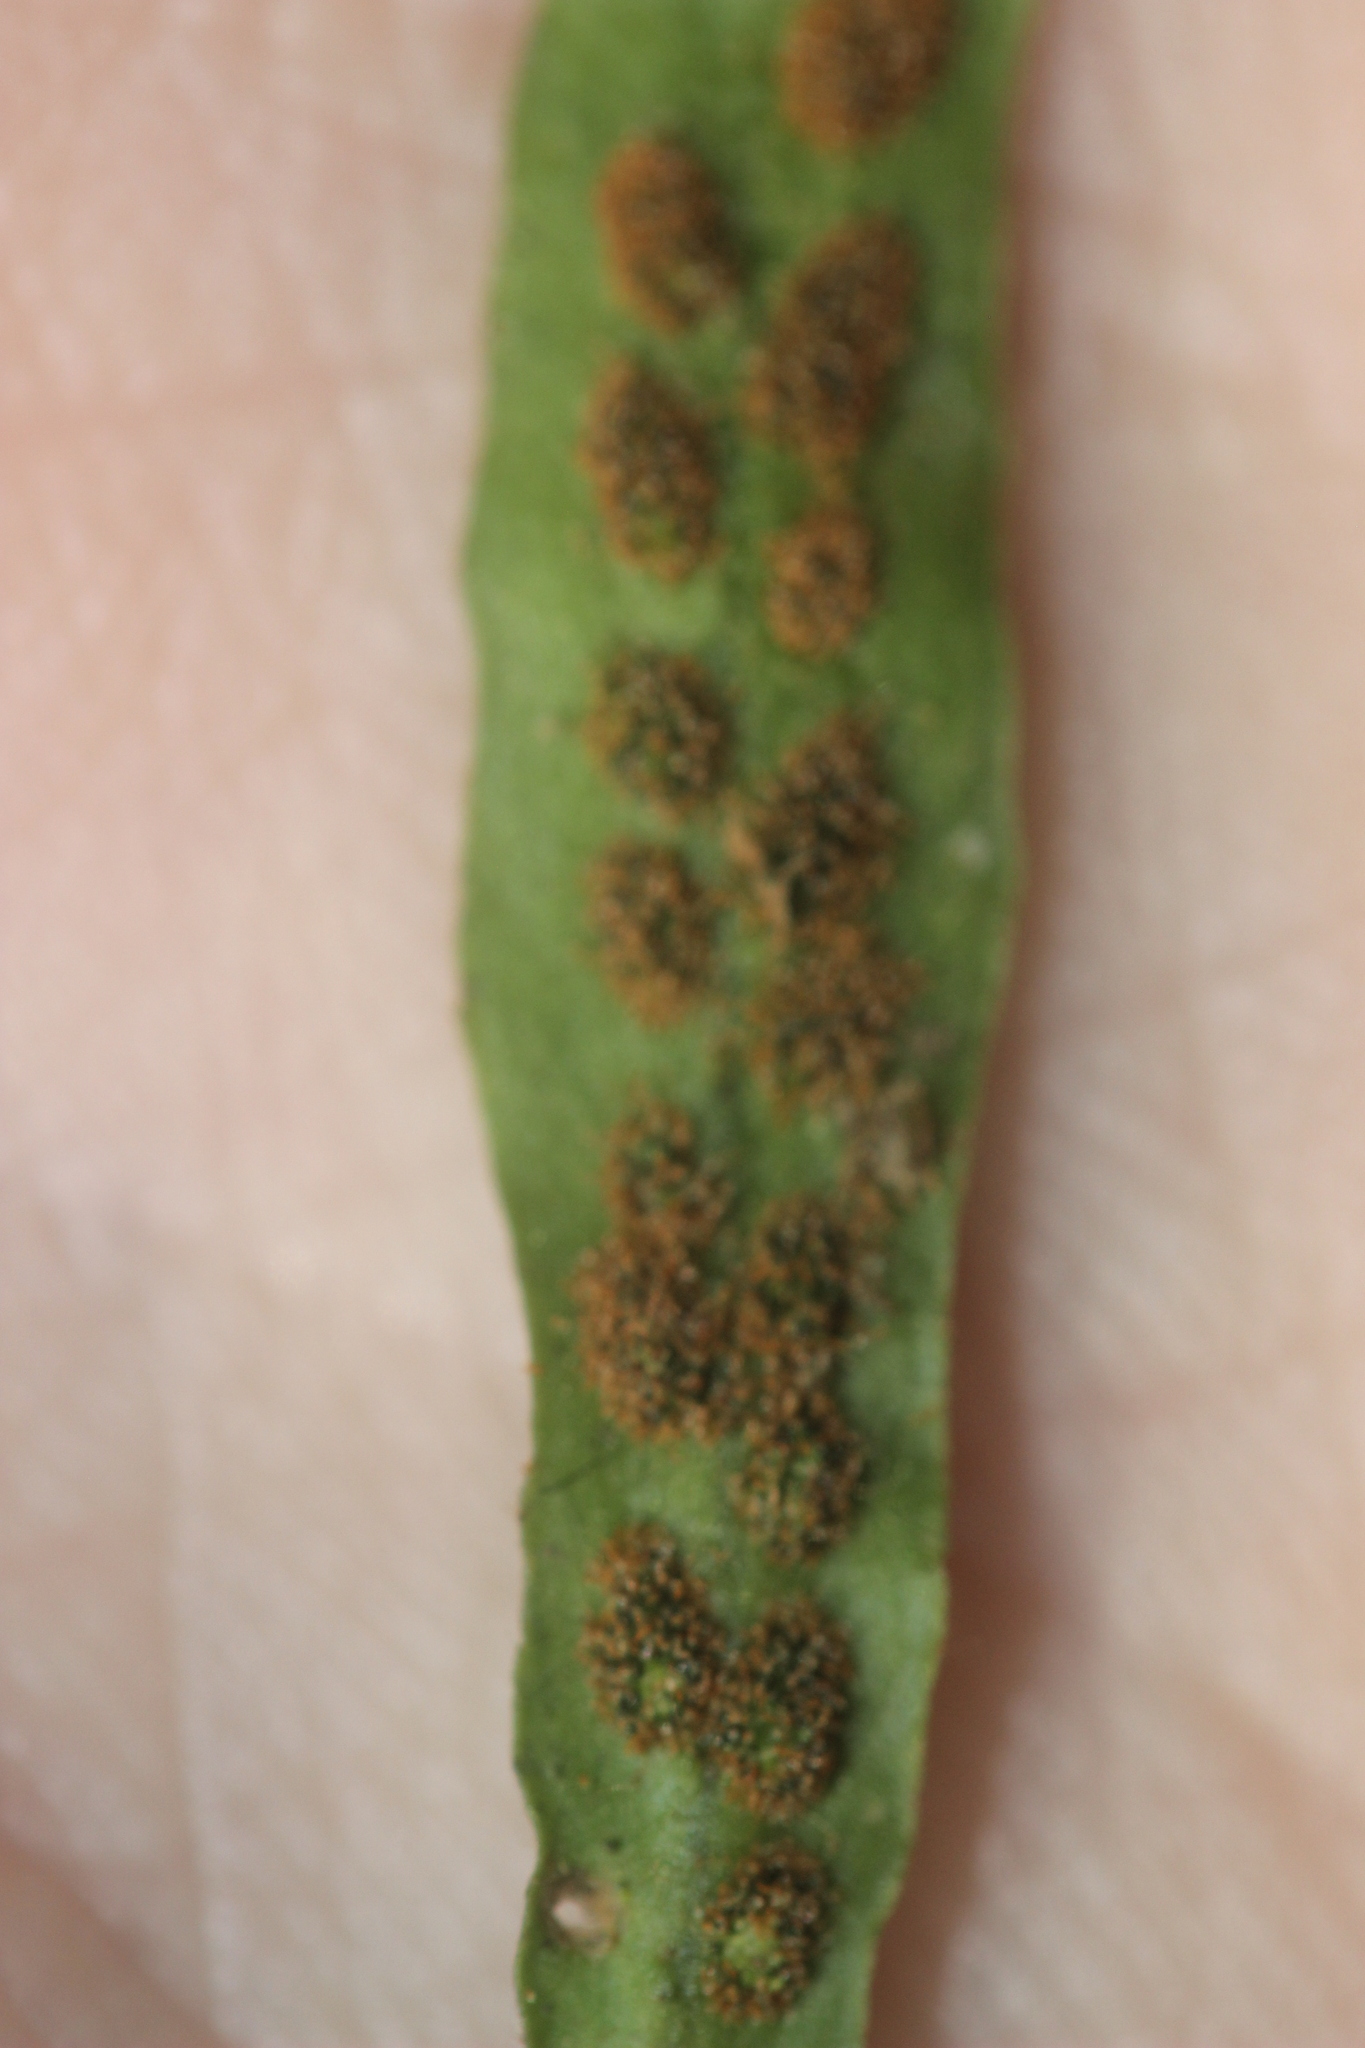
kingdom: Plantae
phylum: Tracheophyta
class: Polypodiopsida
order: Polypodiales
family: Polypodiaceae
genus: Notogrammitis
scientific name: Notogrammitis ciliata
